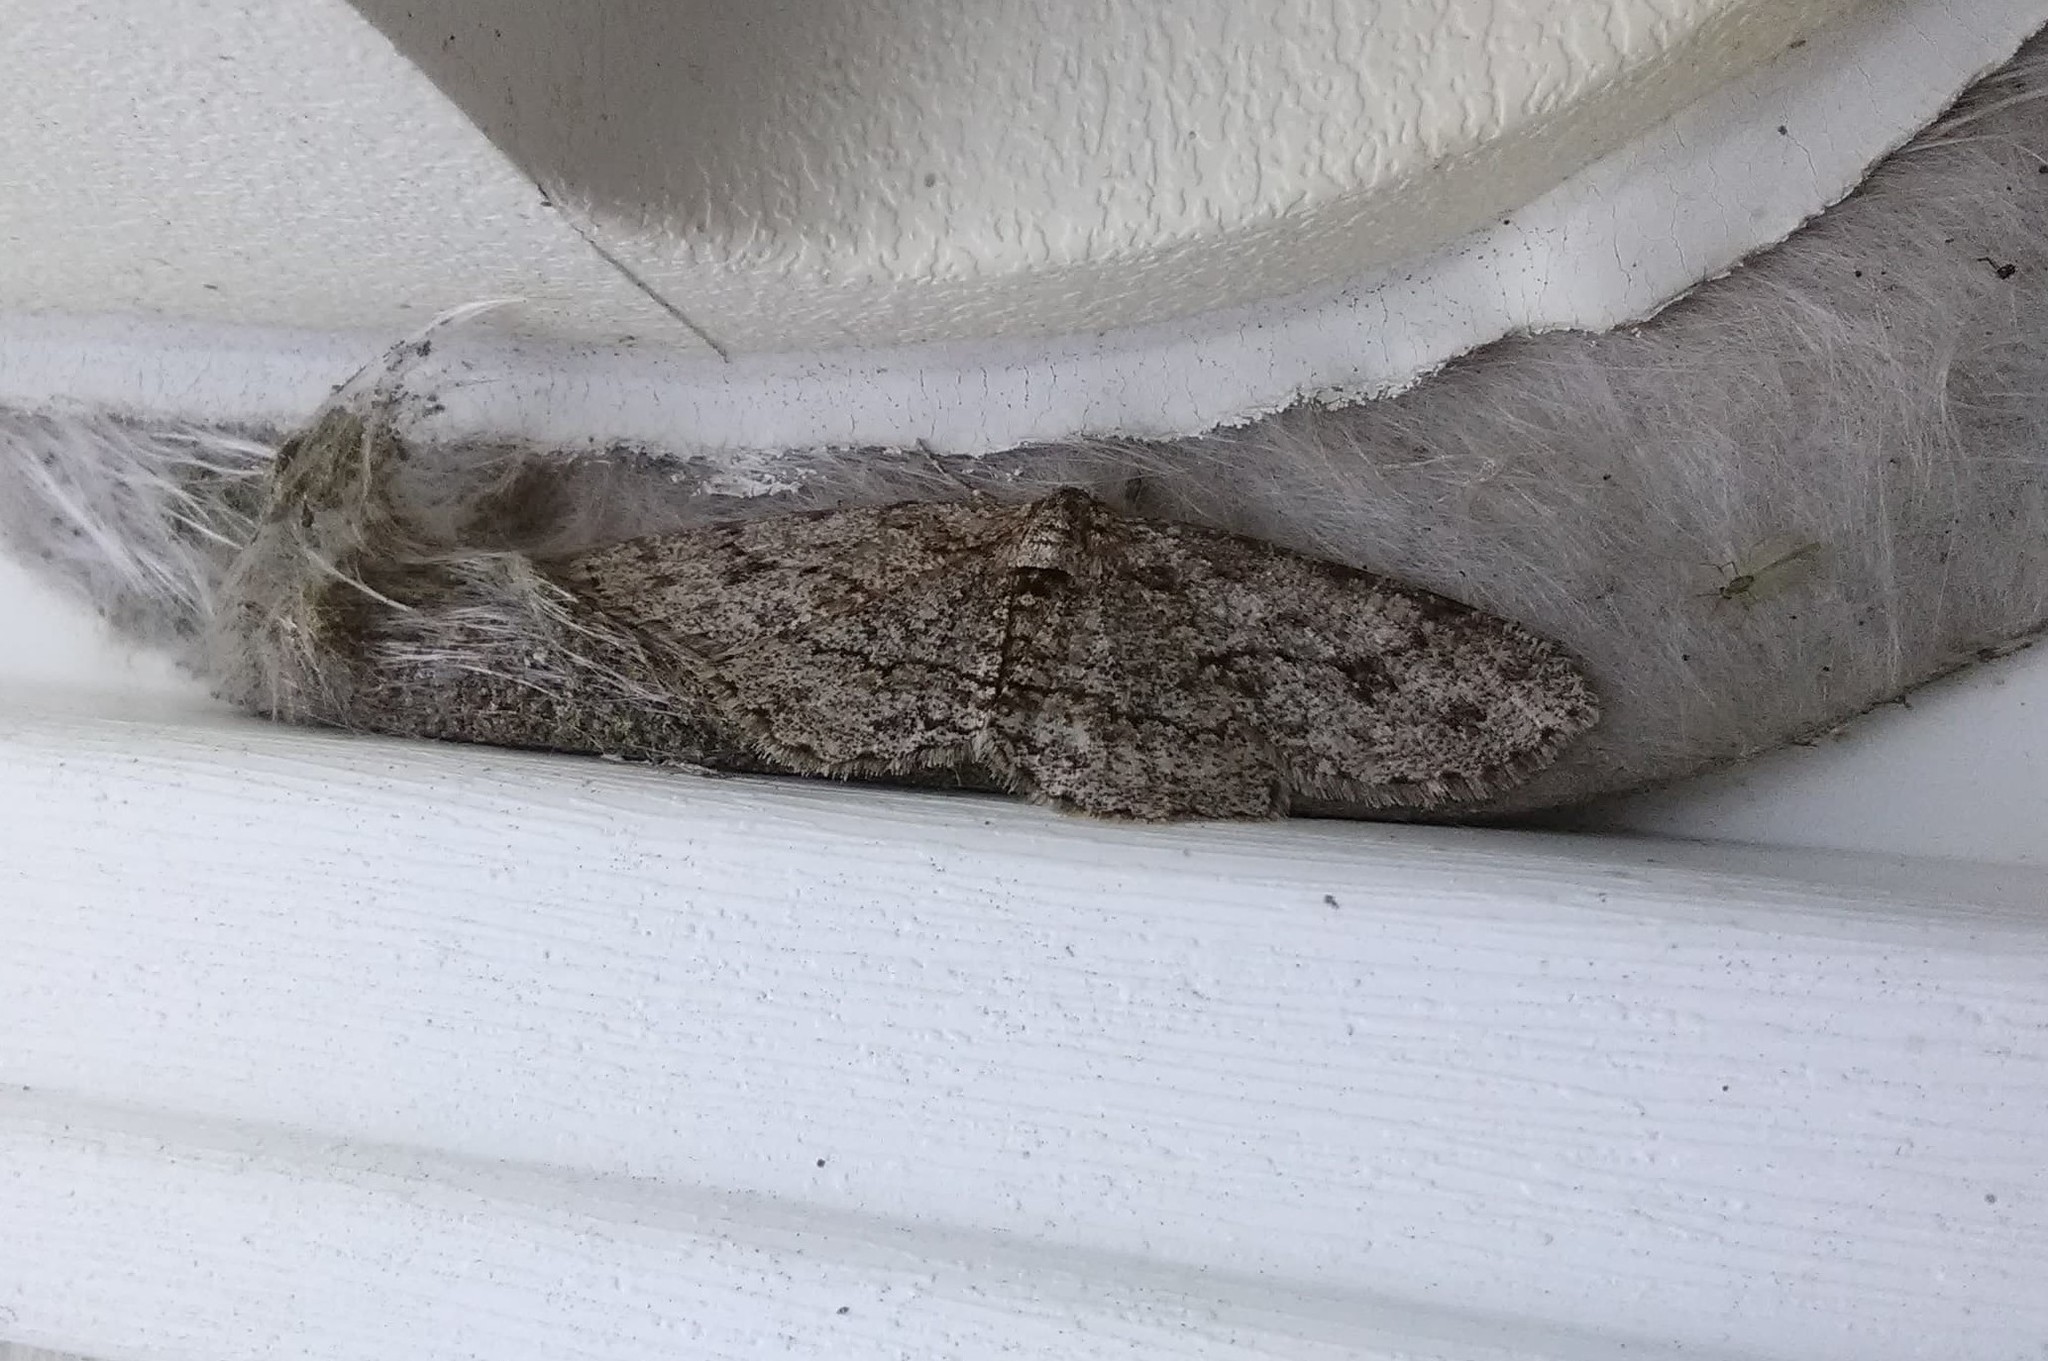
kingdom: Animalia
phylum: Arthropoda
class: Insecta
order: Lepidoptera
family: Geometridae
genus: Ectropis
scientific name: Ectropis crepuscularia
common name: Engrailed
